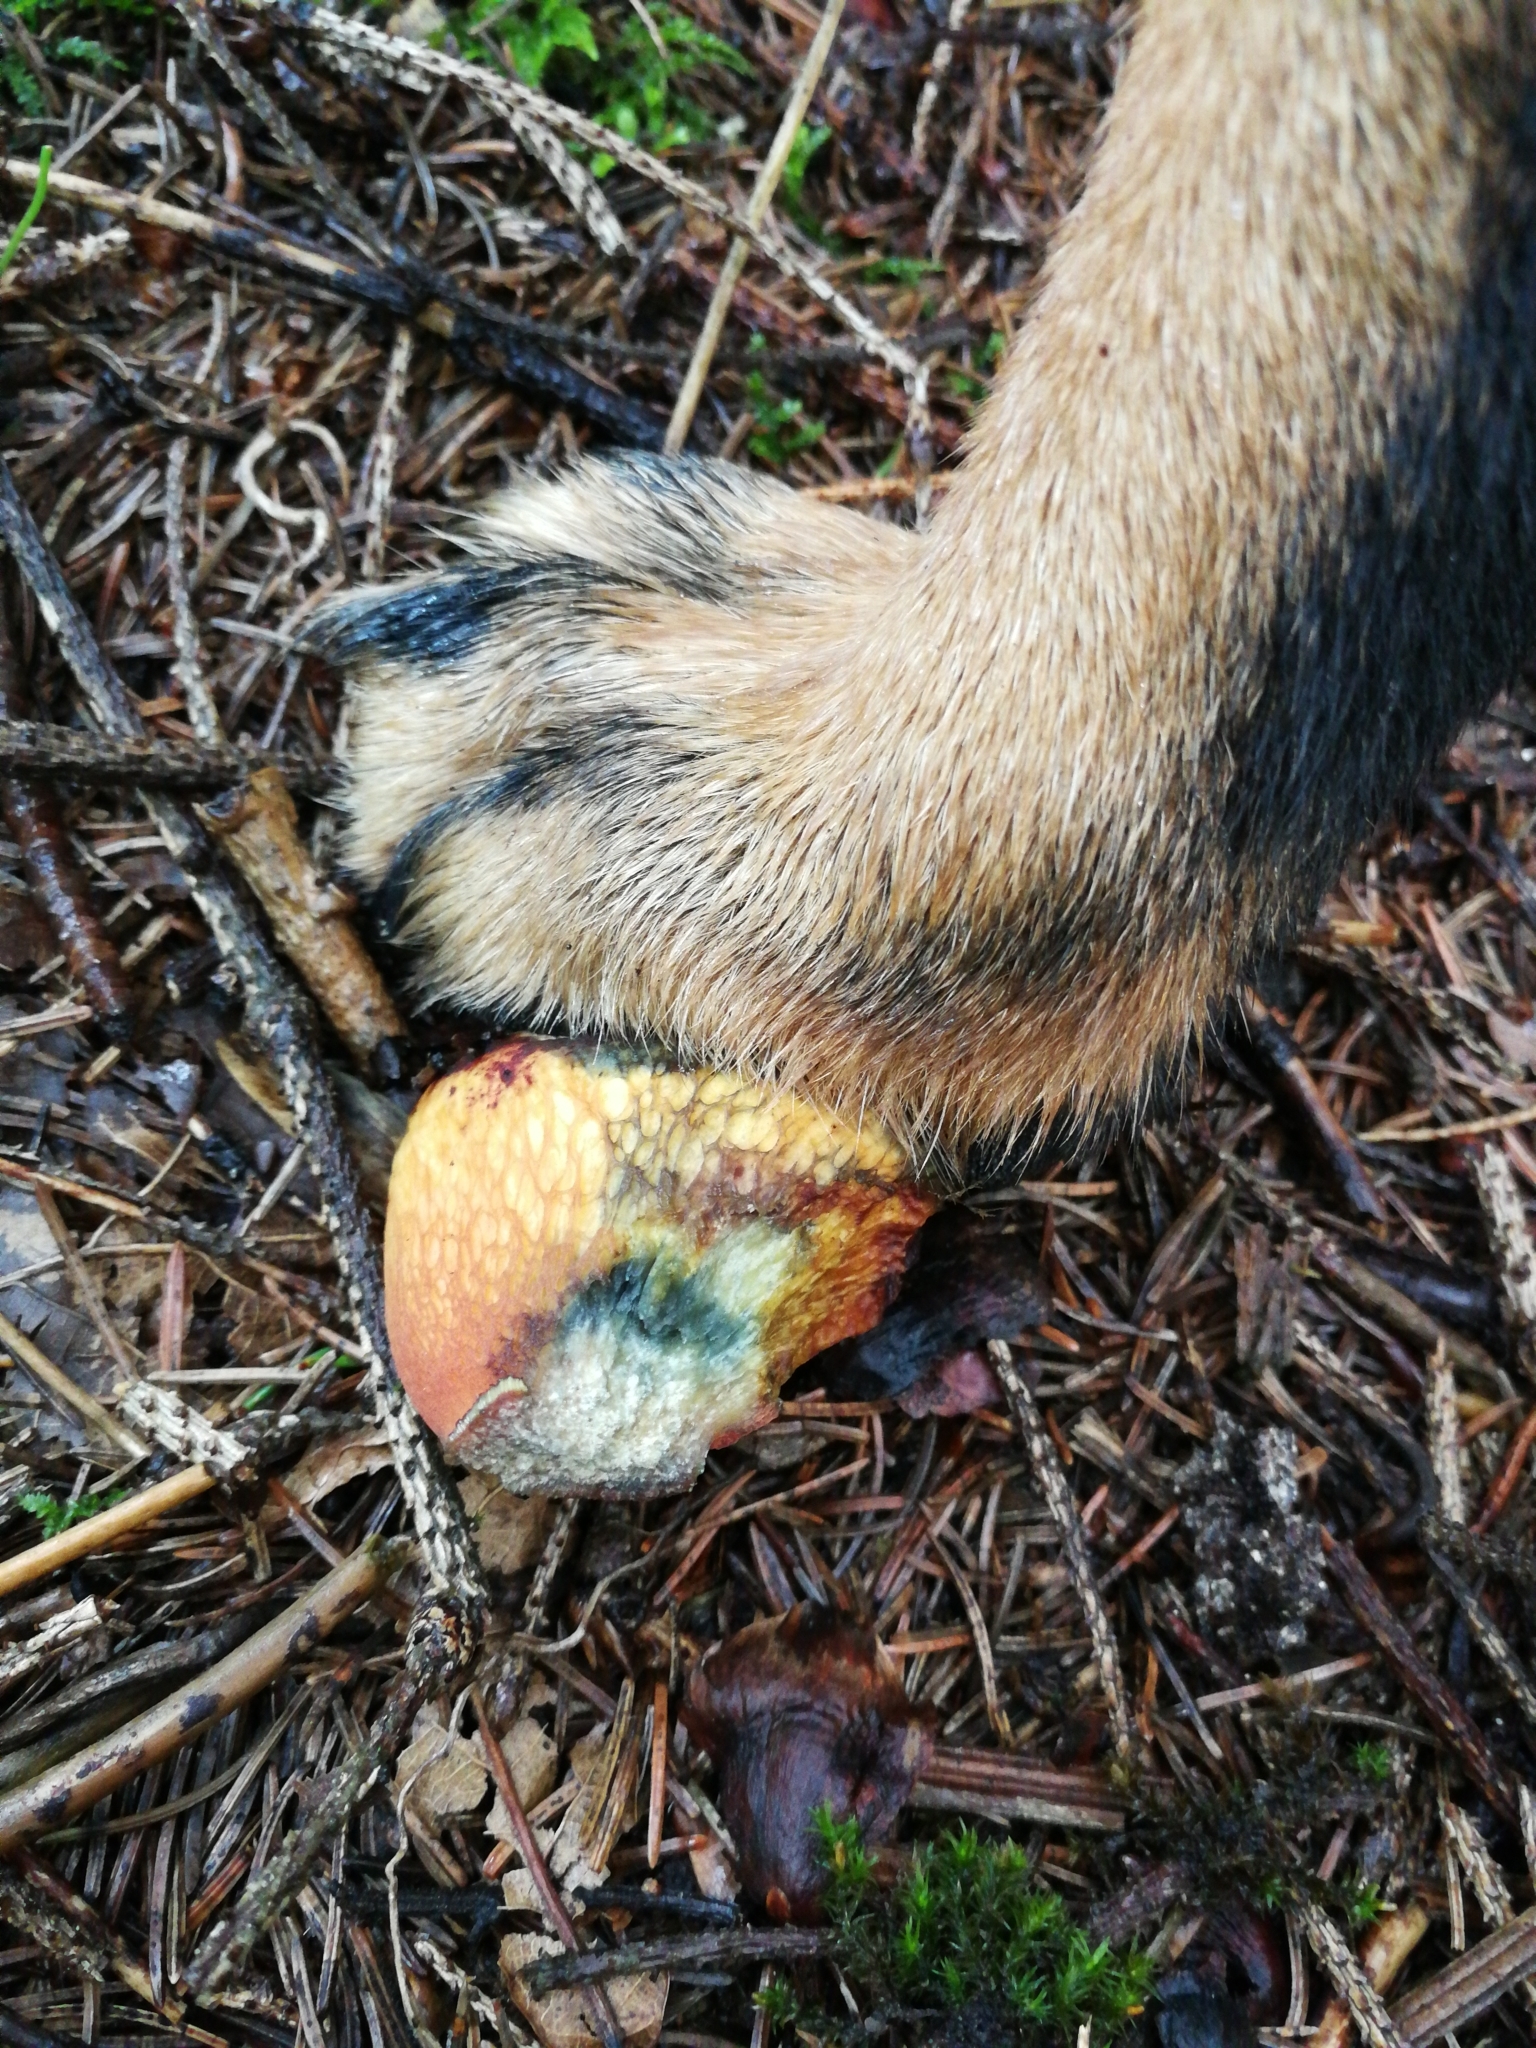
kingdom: Fungi
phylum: Basidiomycota
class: Agaricomycetes
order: Boletales
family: Boletaceae
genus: Suillellus
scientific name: Suillellus luridus
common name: Lurid bolete
